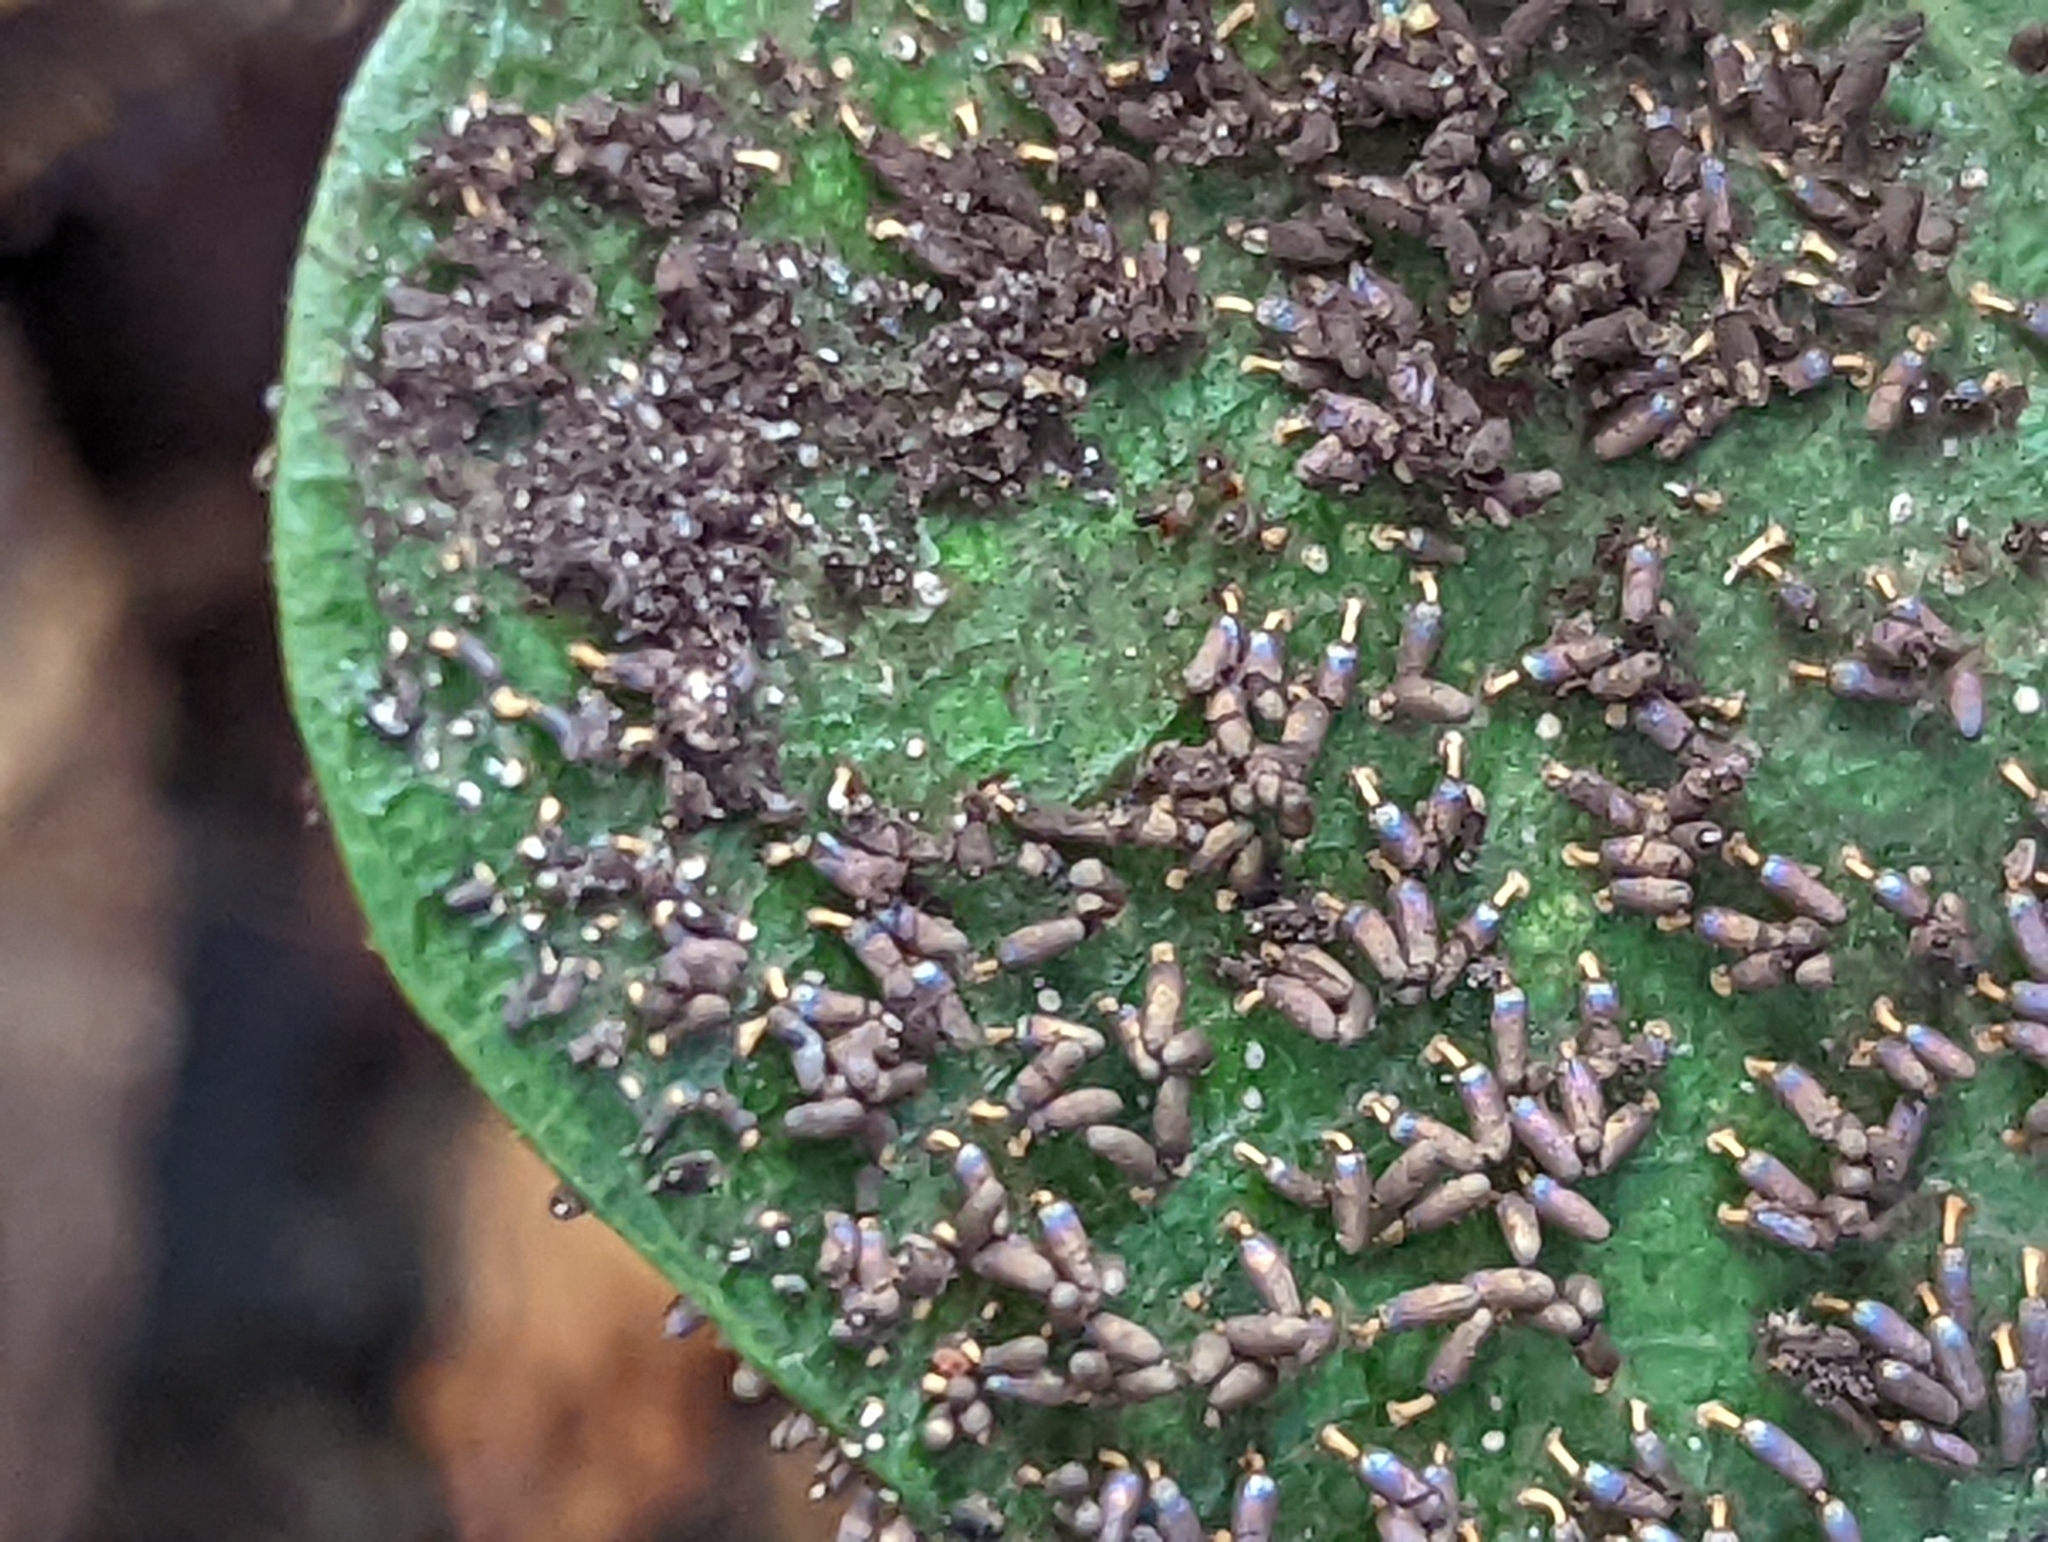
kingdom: Protozoa
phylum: Mycetozoa
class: Myxomycetes
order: Physarales
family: Didymiaceae
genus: Diachea
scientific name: Diachea leucopodia
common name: White-footed slime
